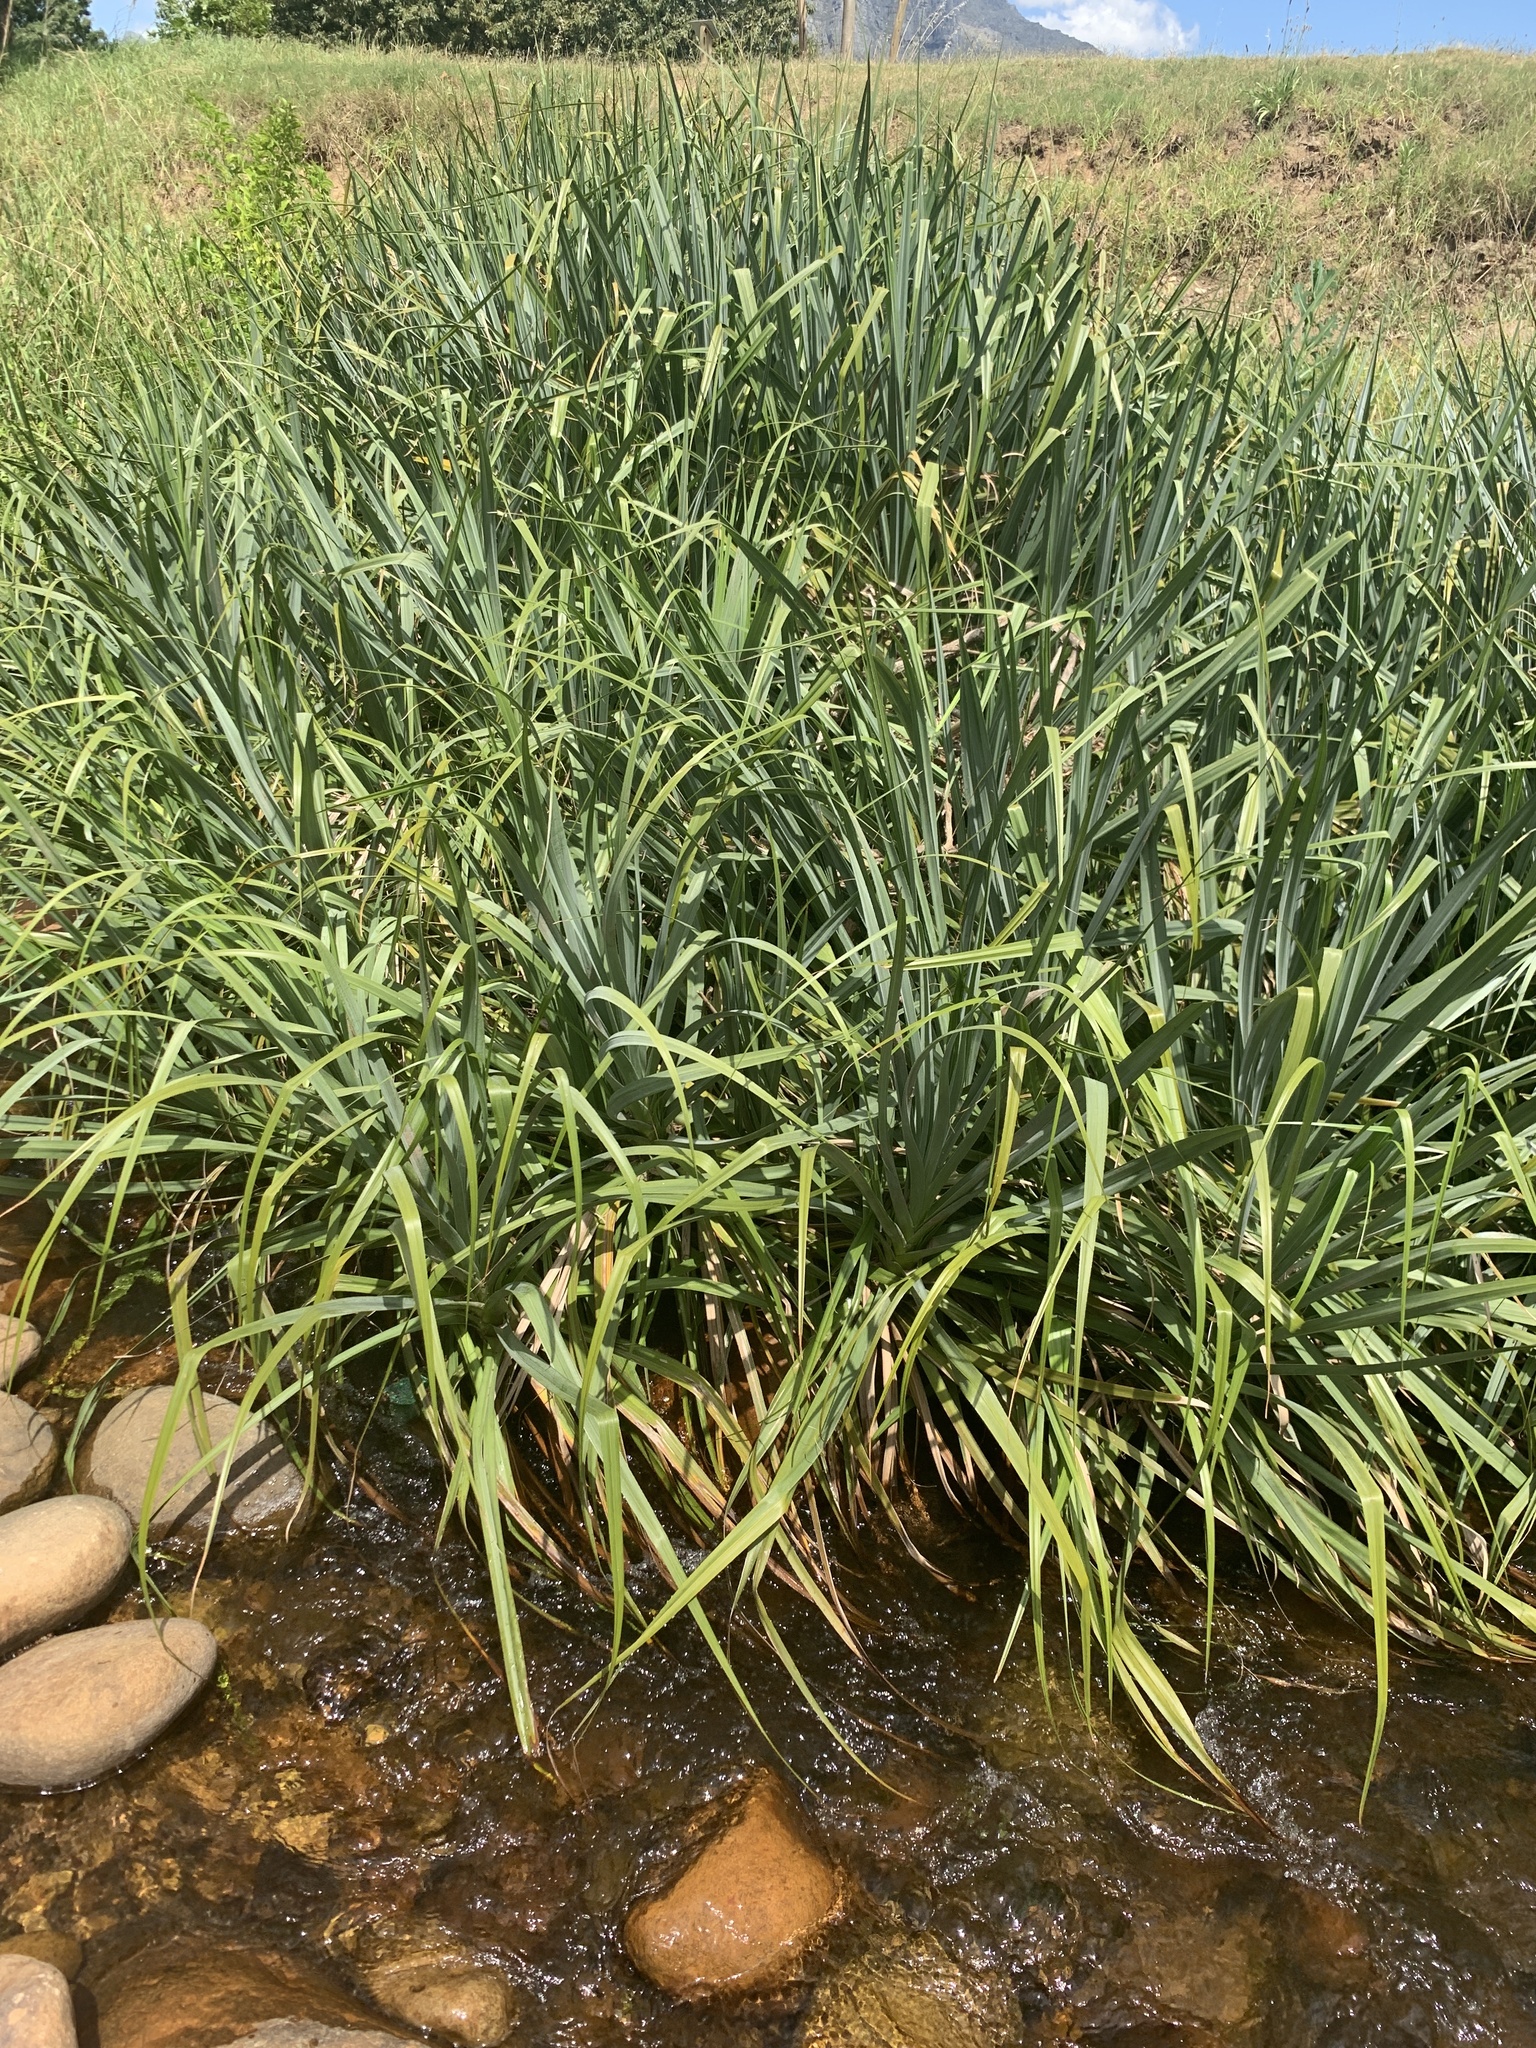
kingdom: Plantae
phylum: Tracheophyta
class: Liliopsida
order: Poales
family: Thurniaceae
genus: Prionium
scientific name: Prionium serratum
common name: Palmiet
